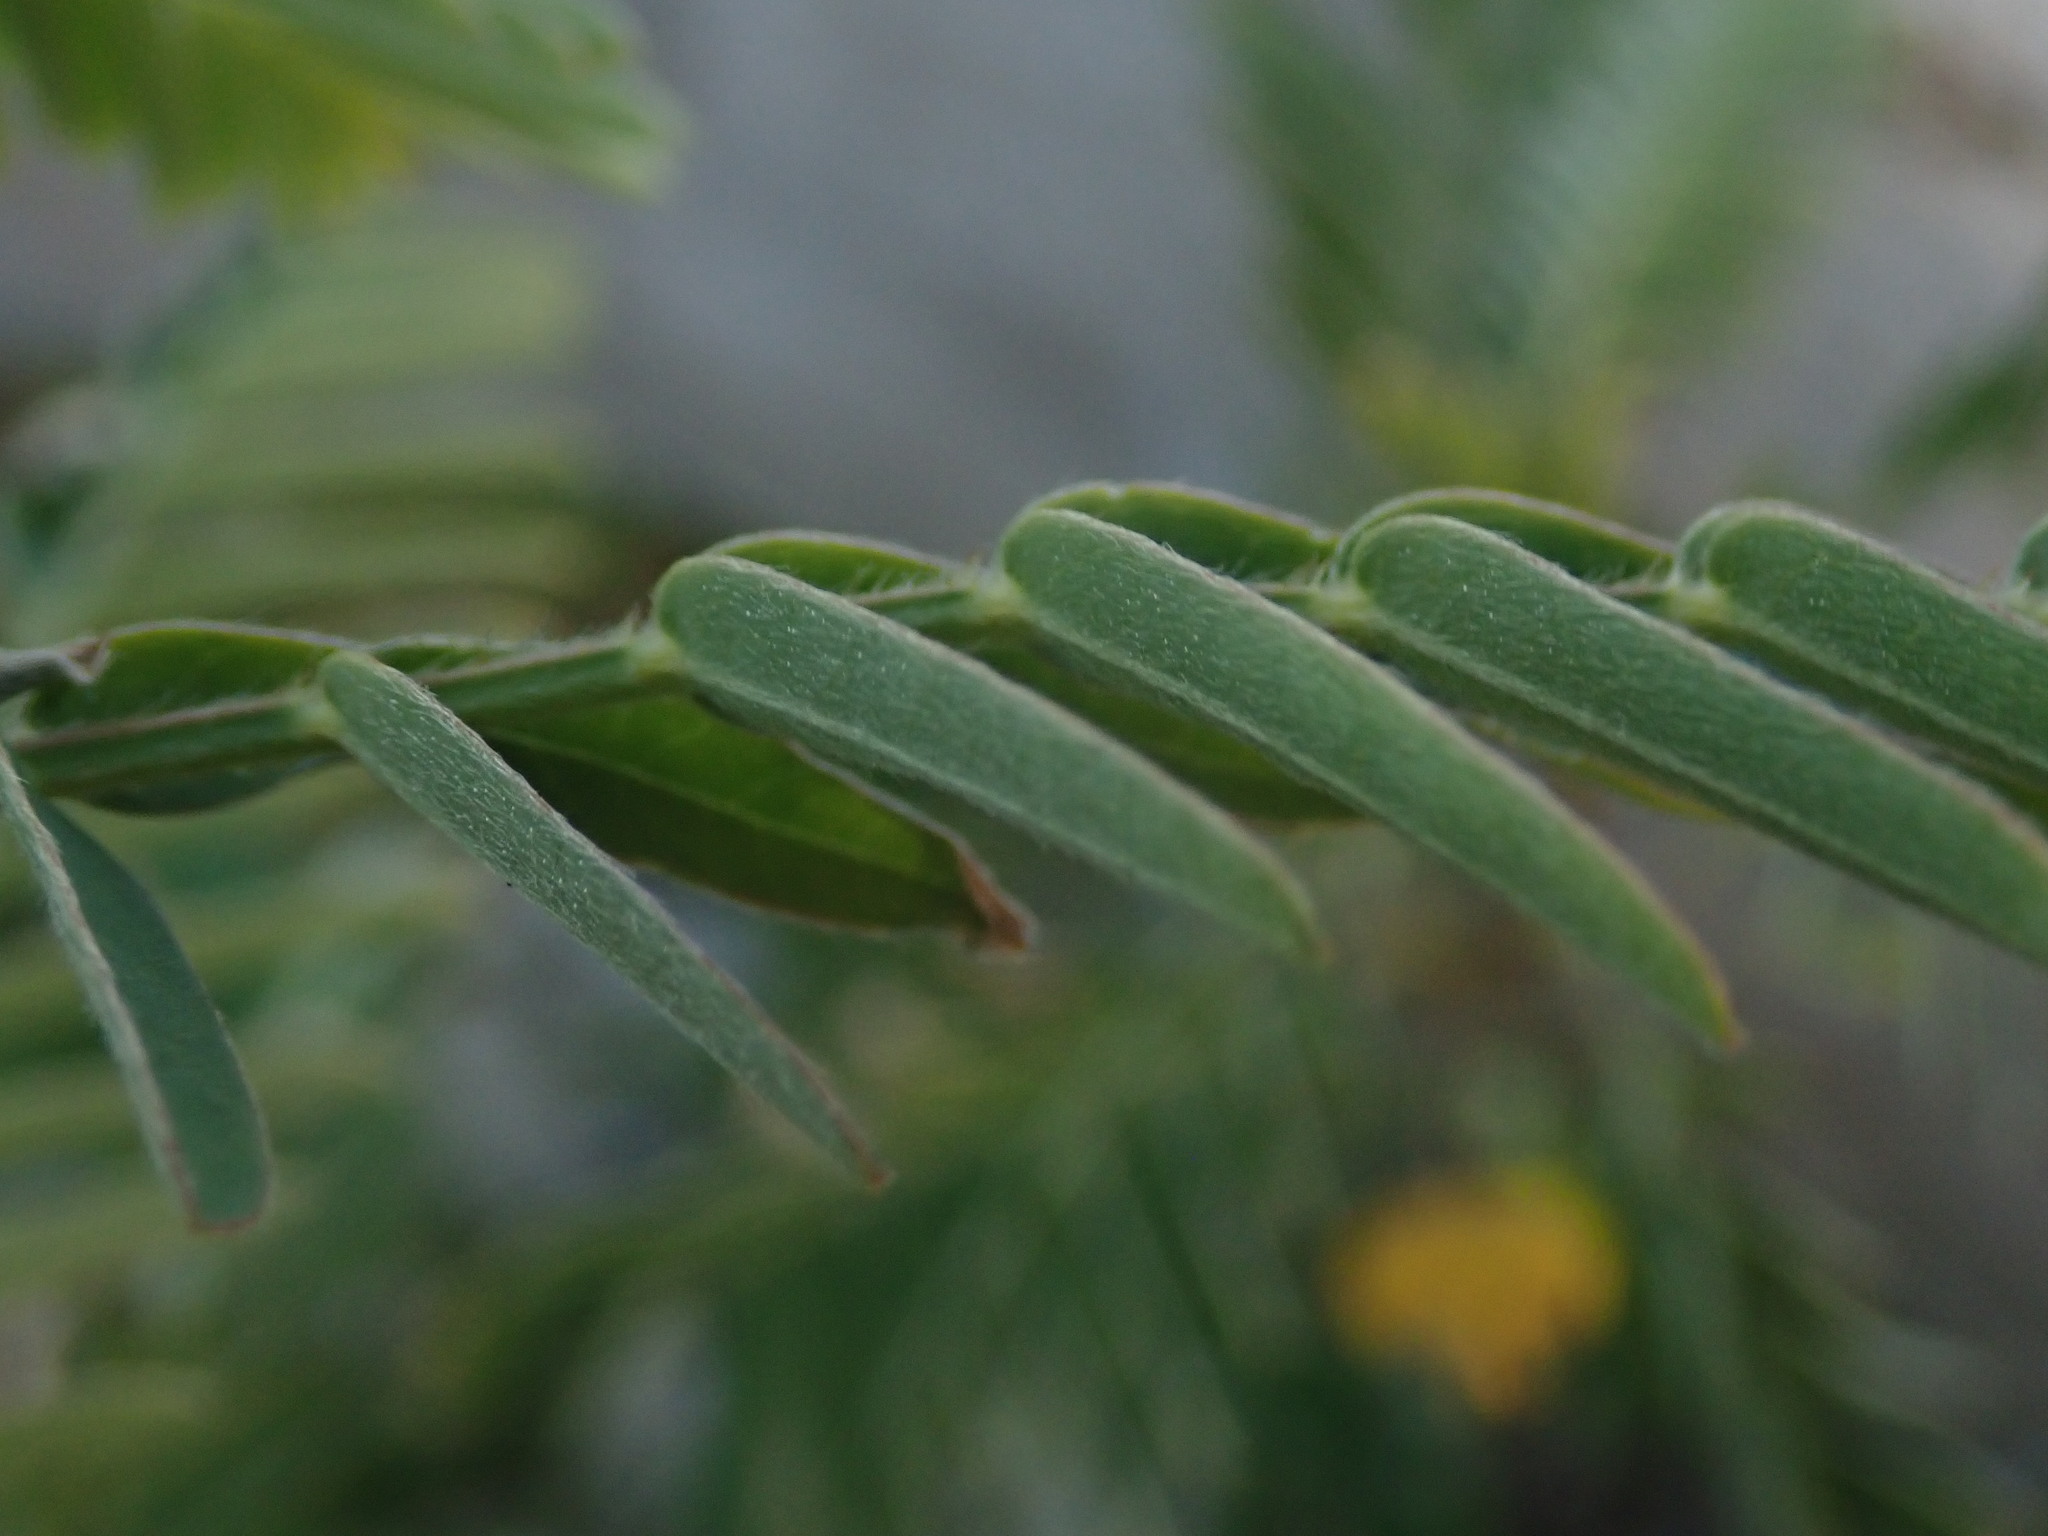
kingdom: Plantae
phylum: Tracheophyta
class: Magnoliopsida
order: Fabales
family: Fabaceae
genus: Sesbania
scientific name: Sesbania sericea
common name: Papagayo
